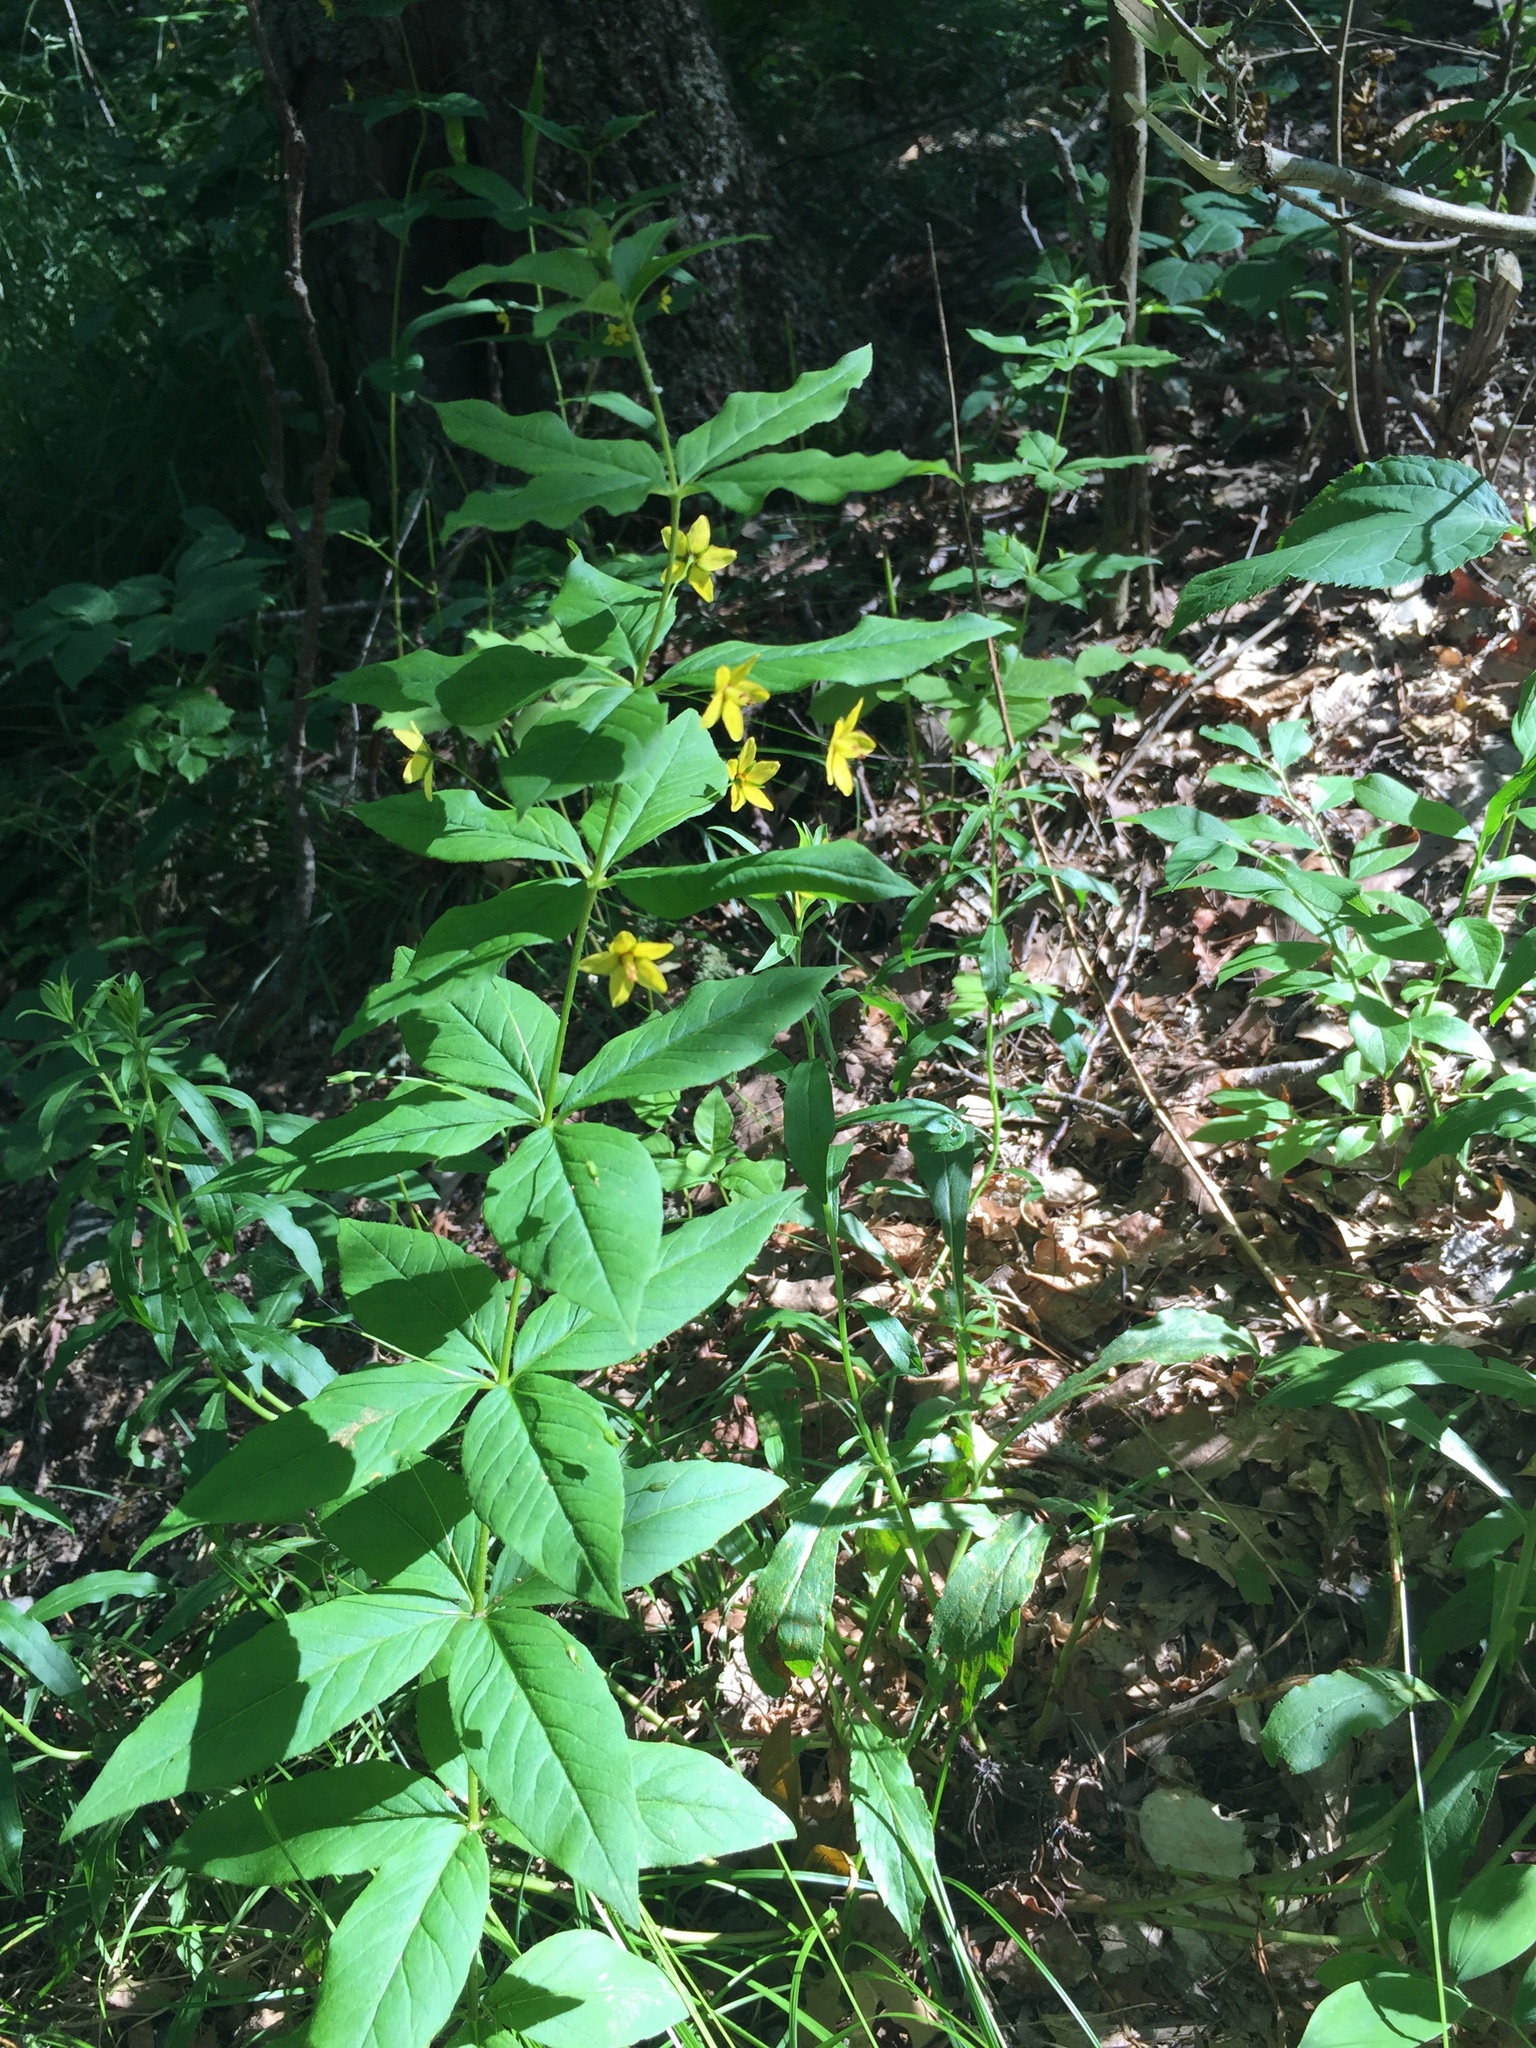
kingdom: Plantae
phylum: Tracheophyta
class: Magnoliopsida
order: Ericales
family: Primulaceae
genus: Lysimachia
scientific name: Lysimachia quadrifolia
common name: Whorled loosestrife
